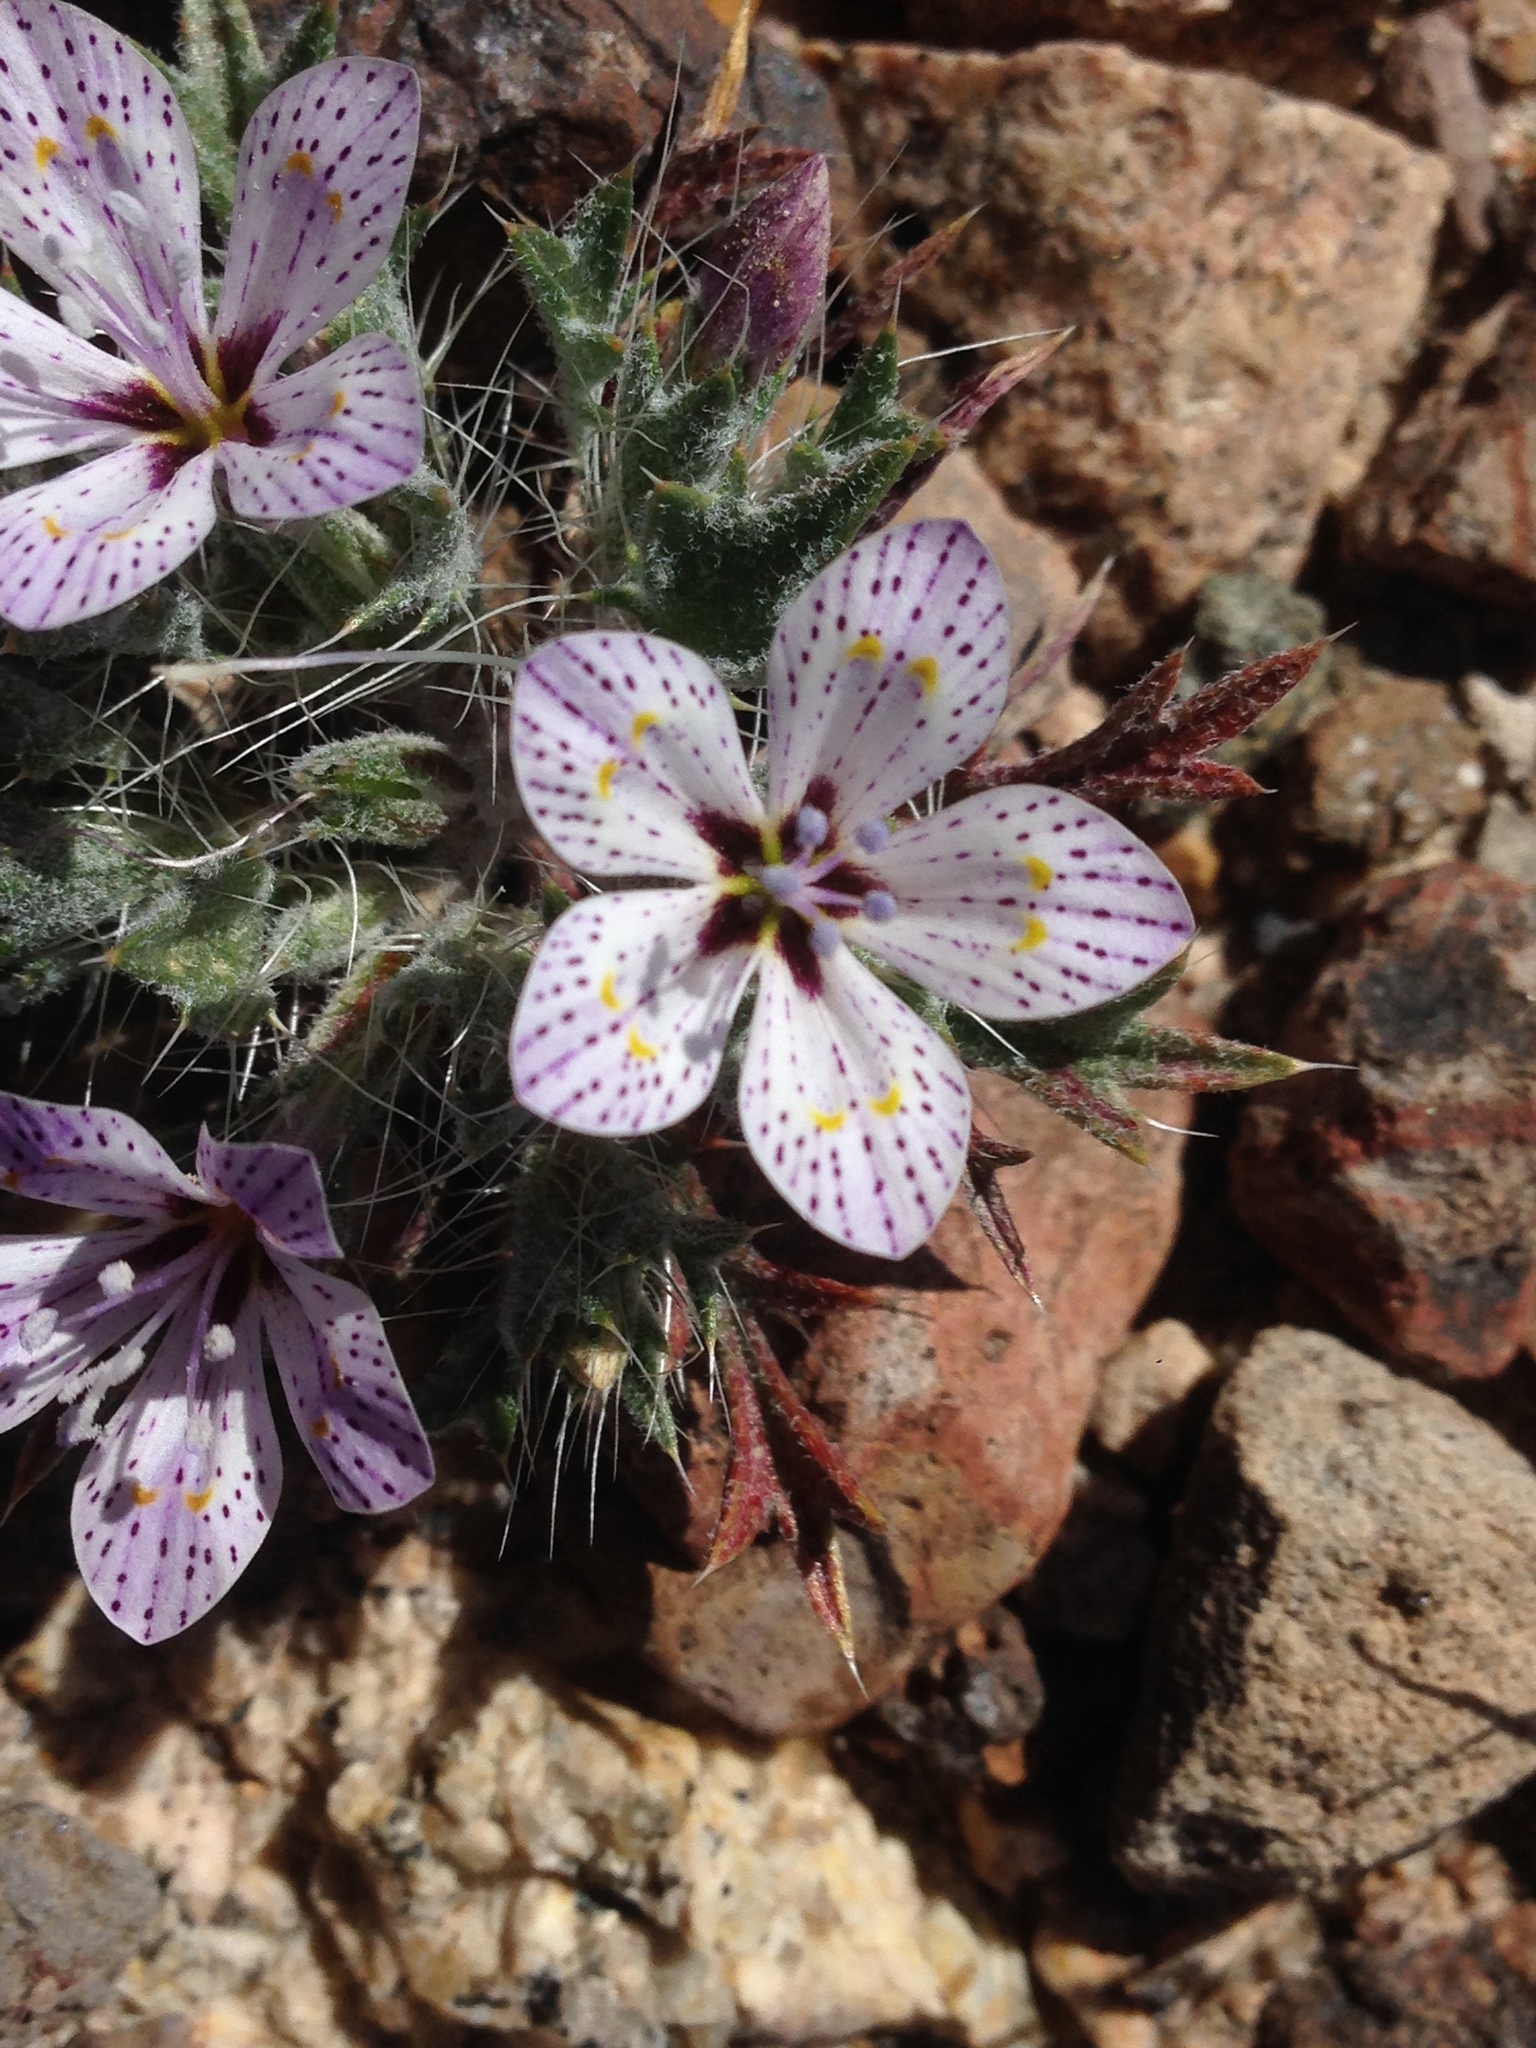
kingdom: Plantae
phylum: Tracheophyta
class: Magnoliopsida
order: Ericales
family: Polemoniaceae
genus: Langloisia
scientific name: Langloisia setosissima
